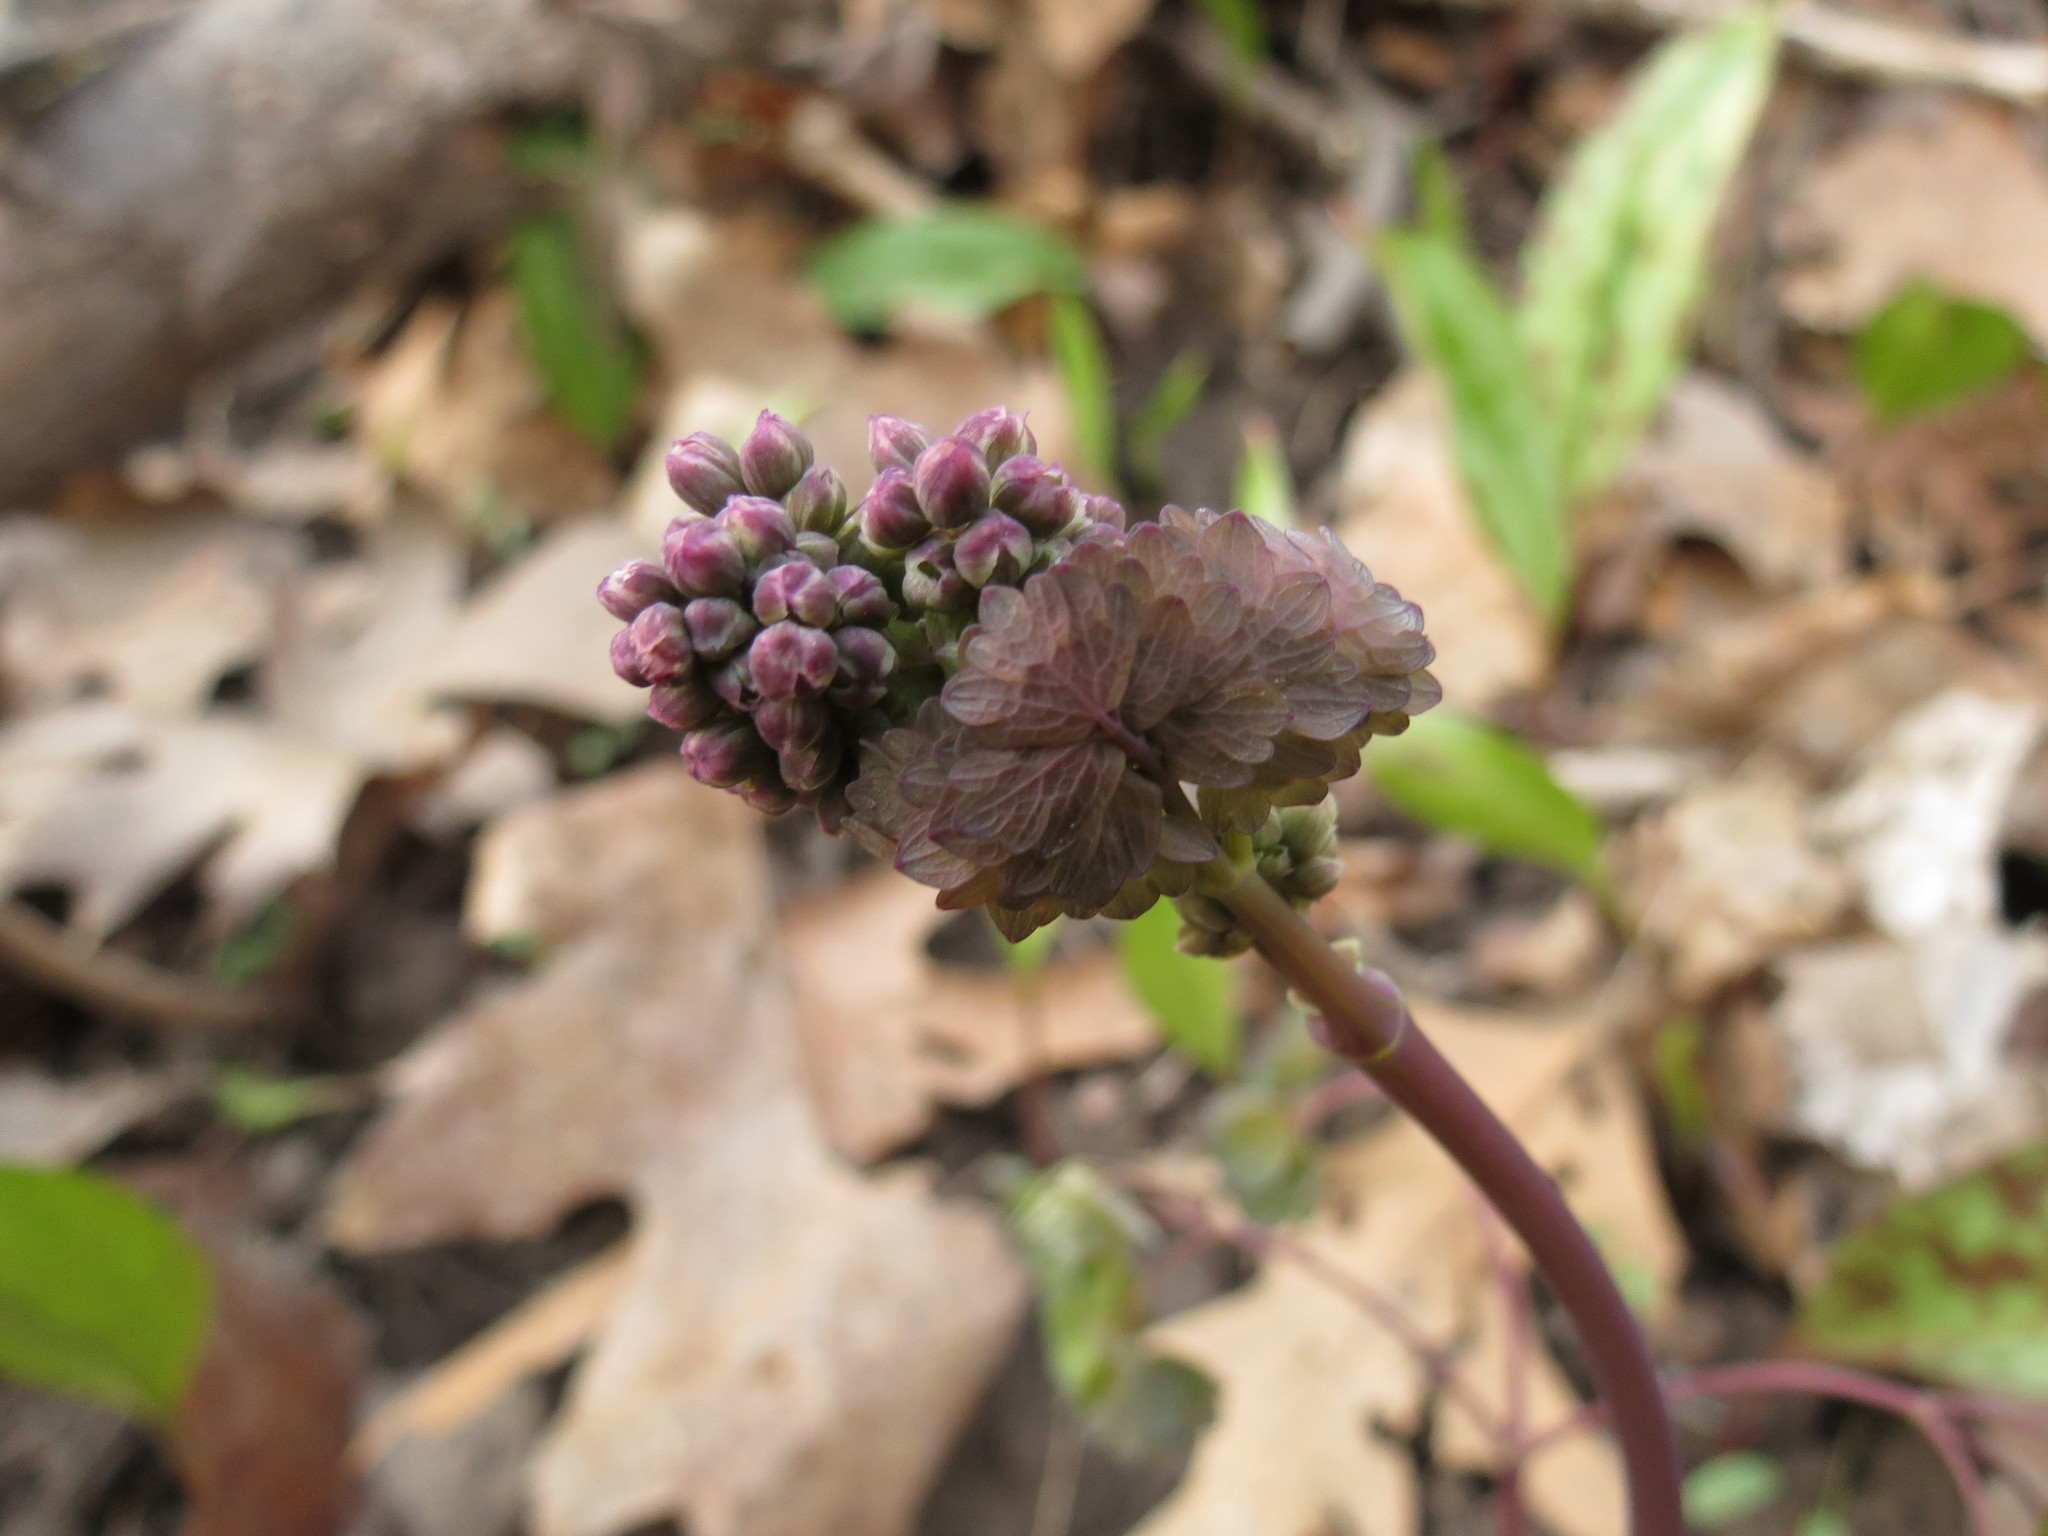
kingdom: Plantae
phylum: Tracheophyta
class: Magnoliopsida
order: Ranunculales
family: Ranunculaceae
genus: Thalictrum
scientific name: Thalictrum dioicum
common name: Early meadow-rue
